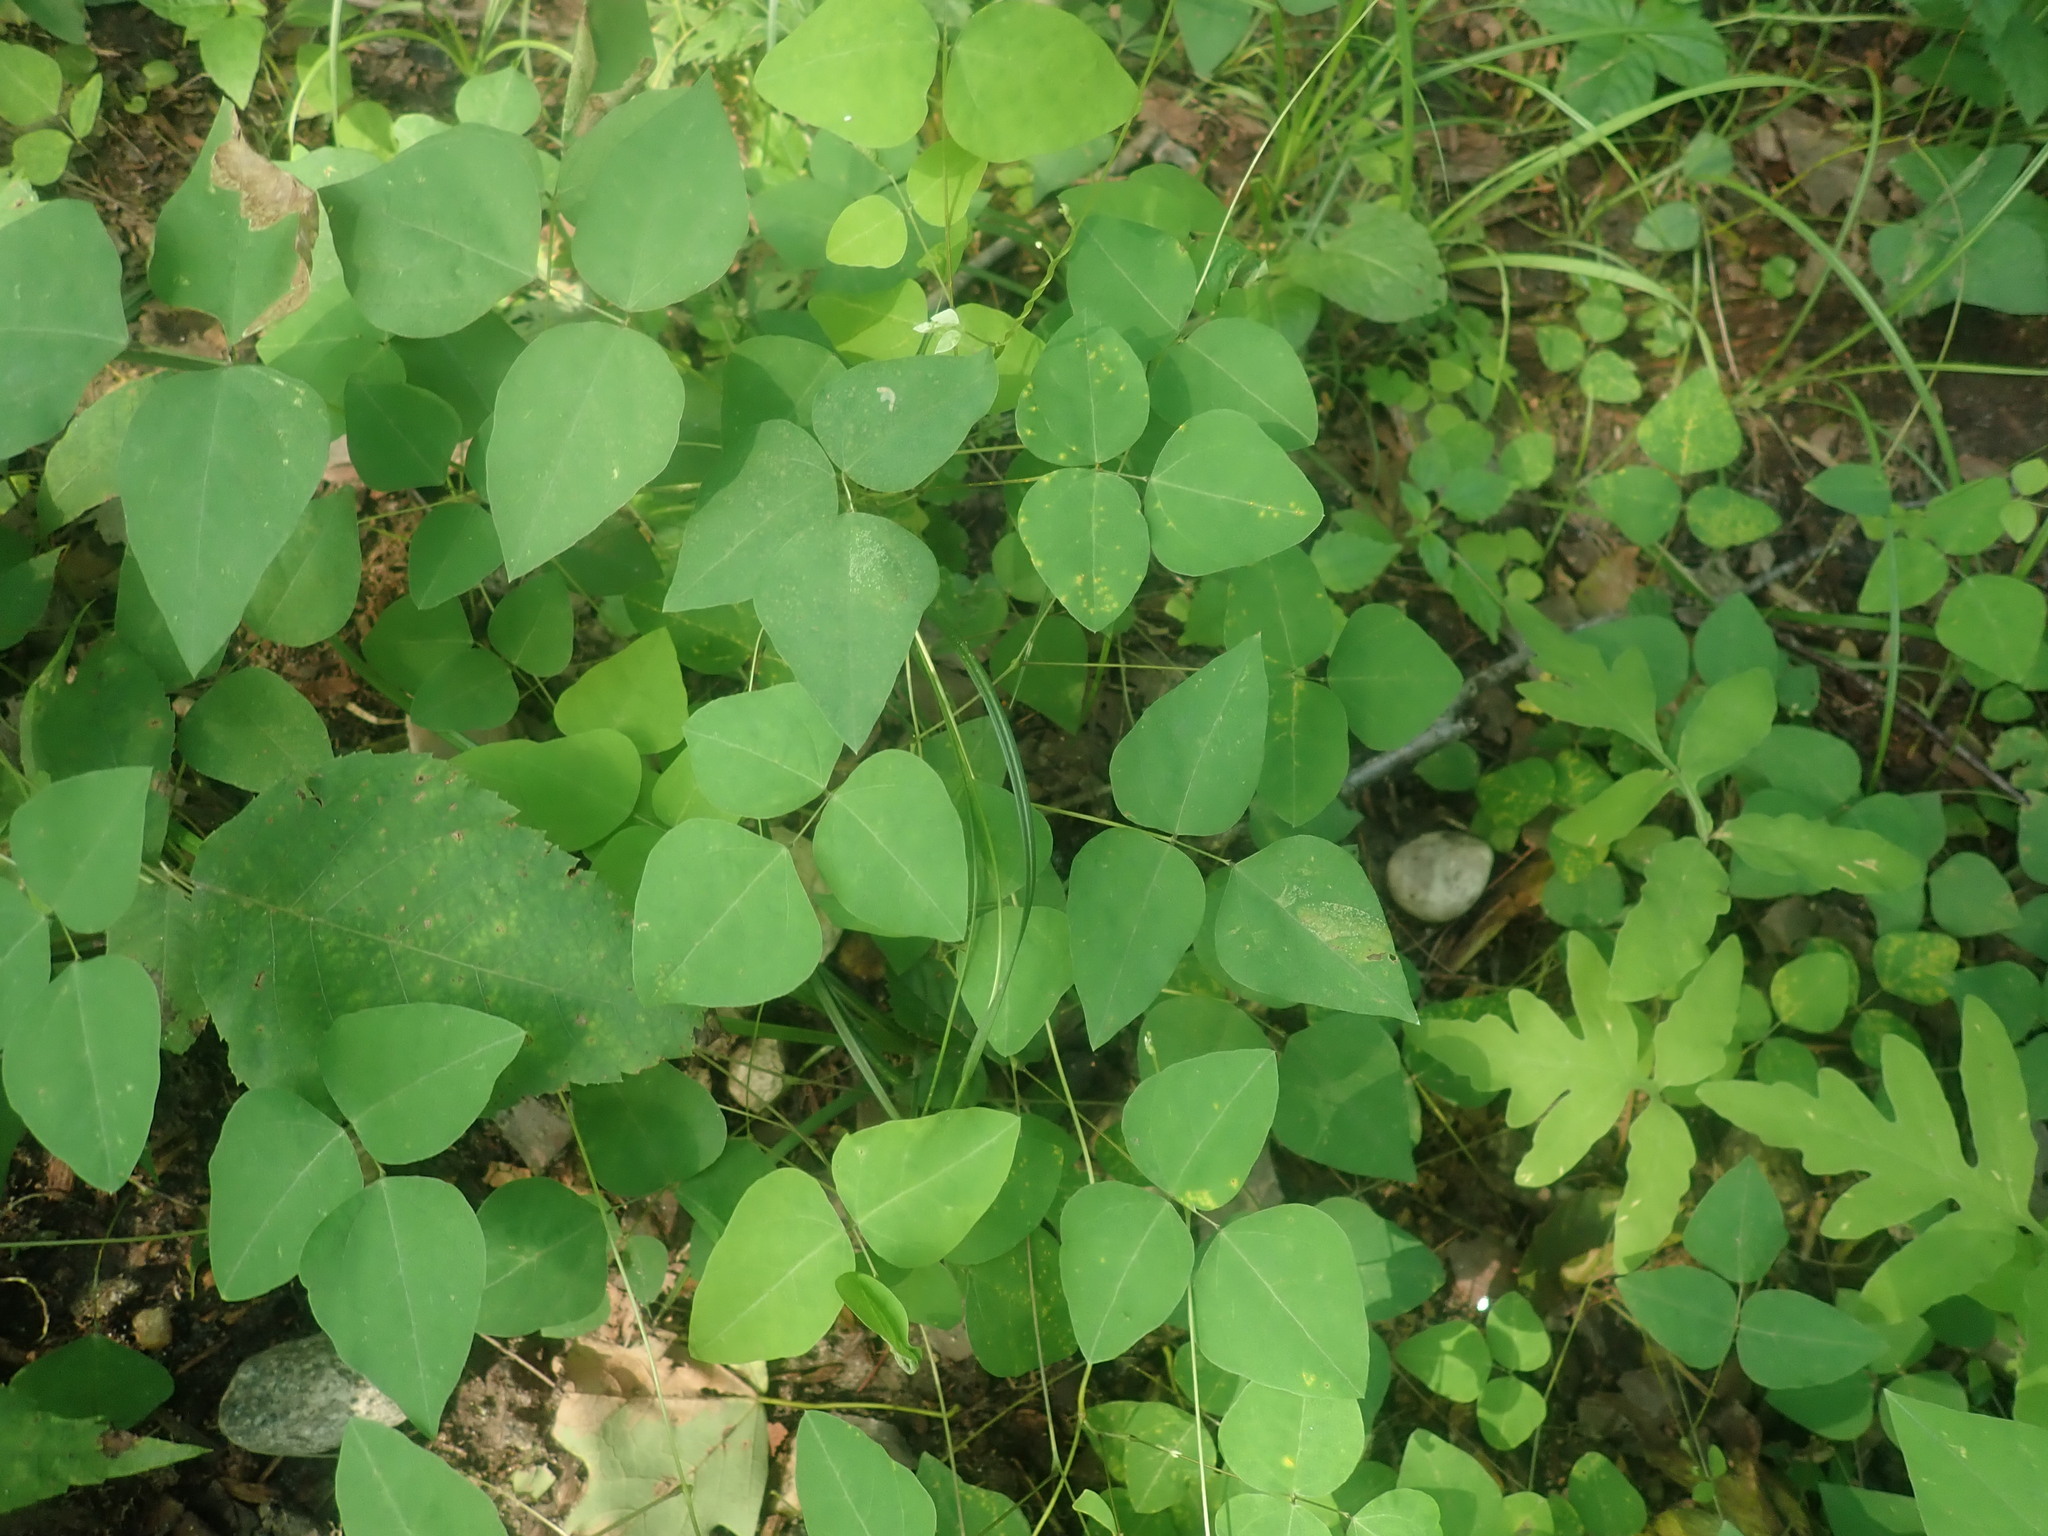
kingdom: Plantae
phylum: Tracheophyta
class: Magnoliopsida
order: Fabales
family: Fabaceae
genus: Amphicarpaea
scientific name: Amphicarpaea bracteata
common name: American hog peanut
